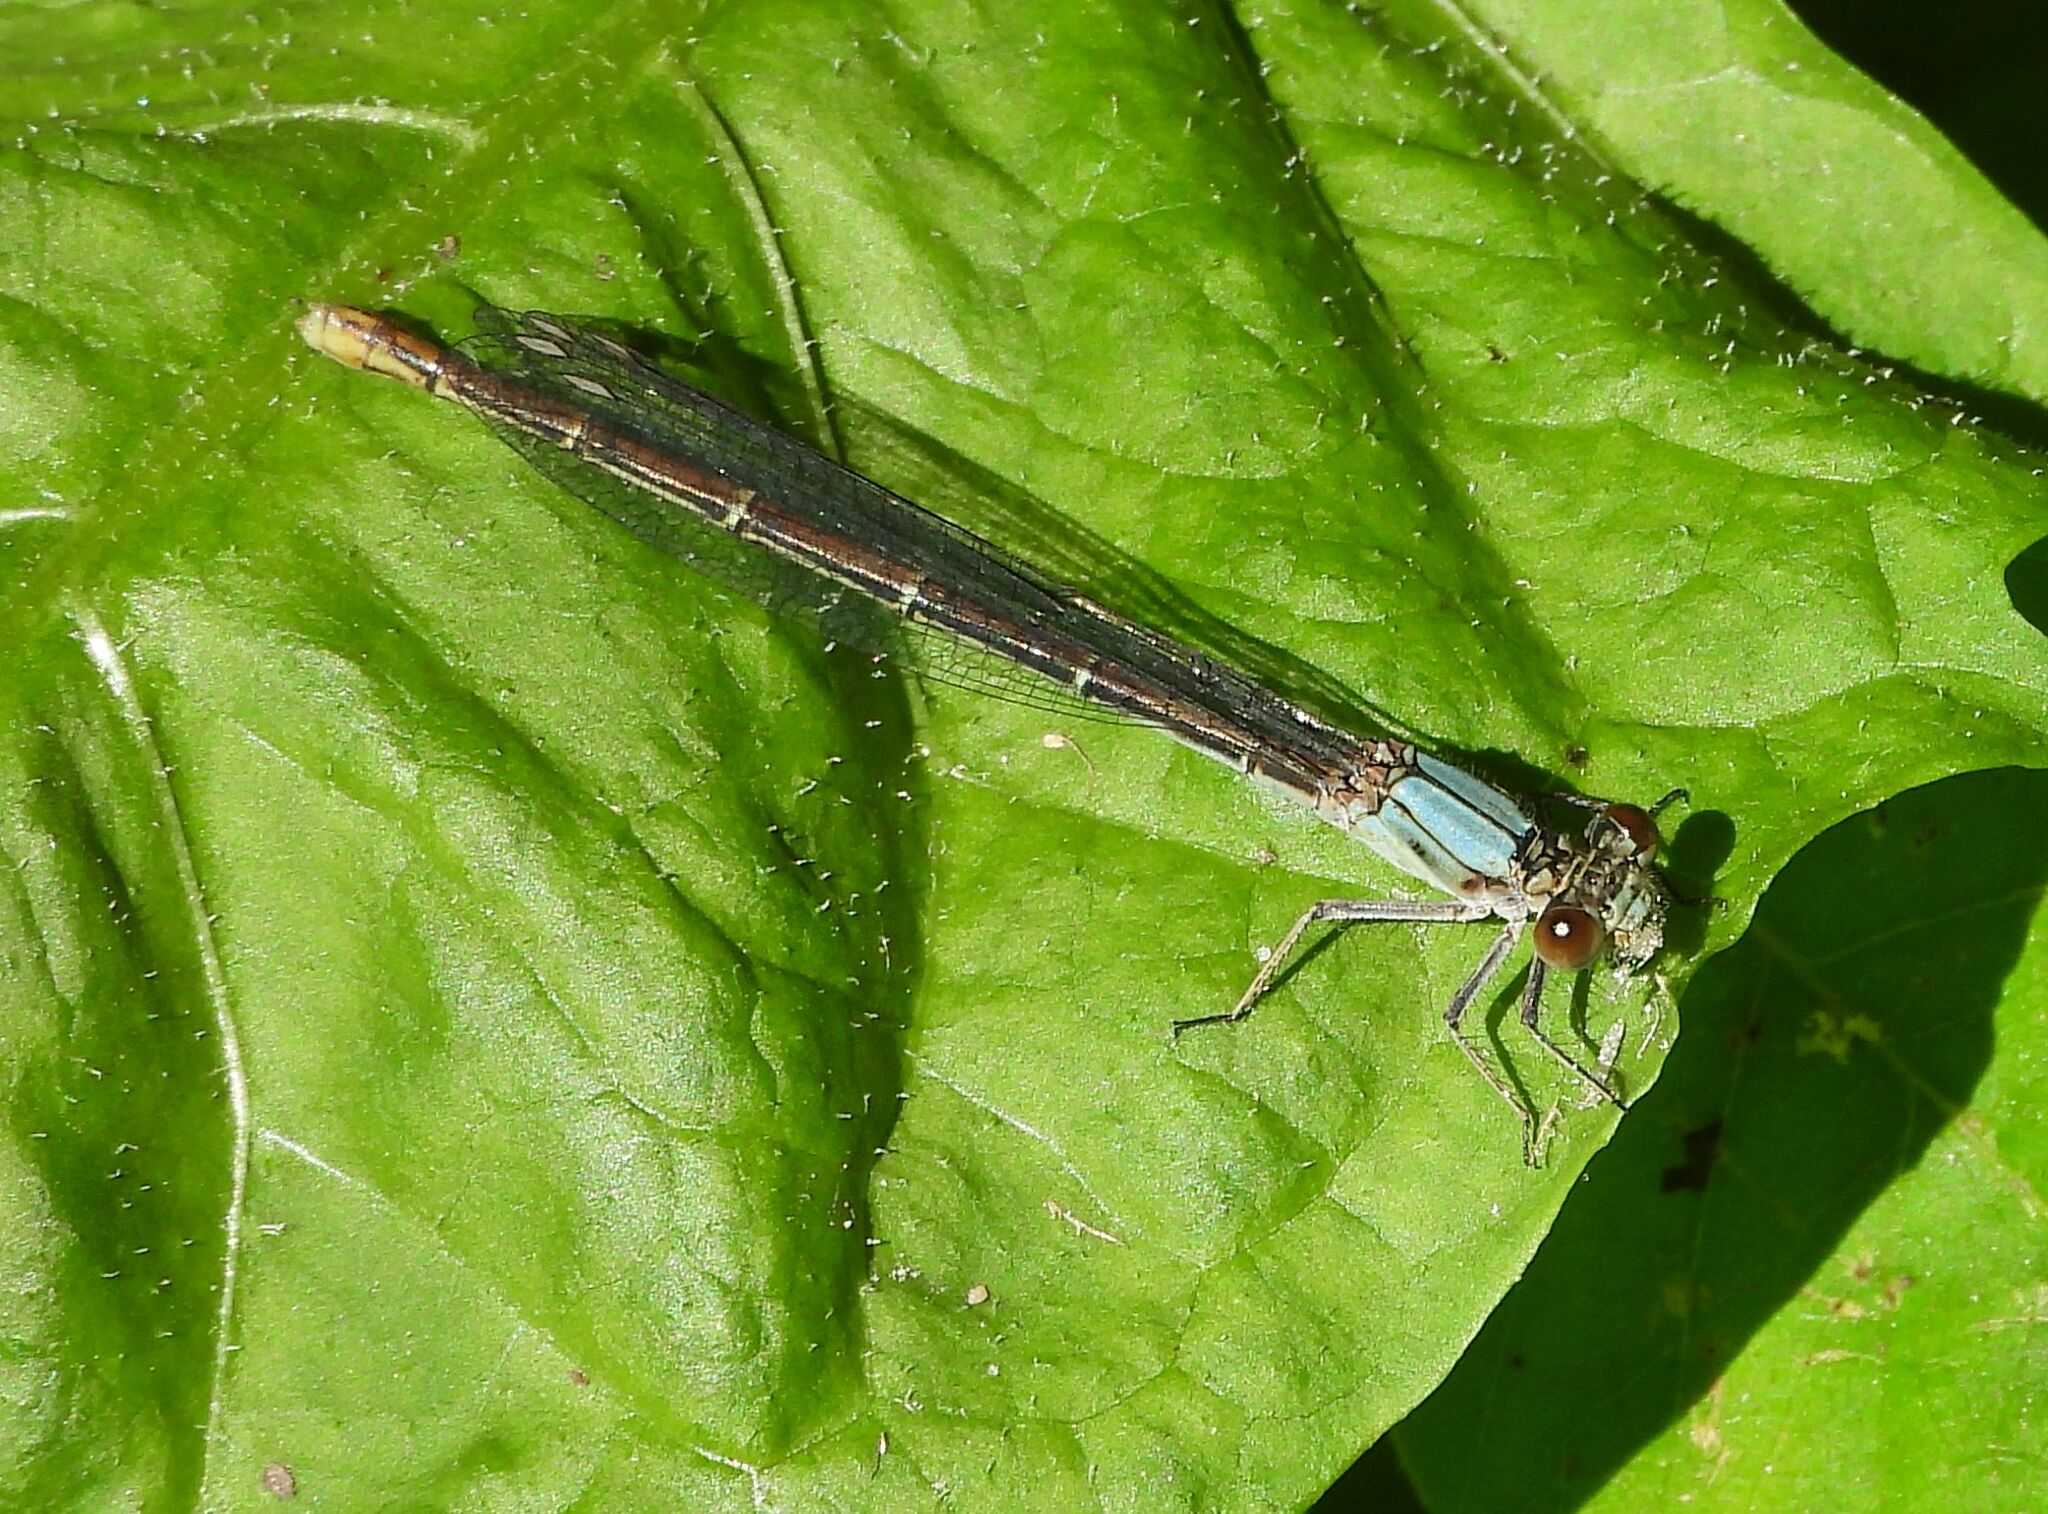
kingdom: Animalia
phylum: Arthropoda
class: Insecta
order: Odonata
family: Coenagrionidae
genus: Argia
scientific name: Argia moesta
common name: Powdered dancer
